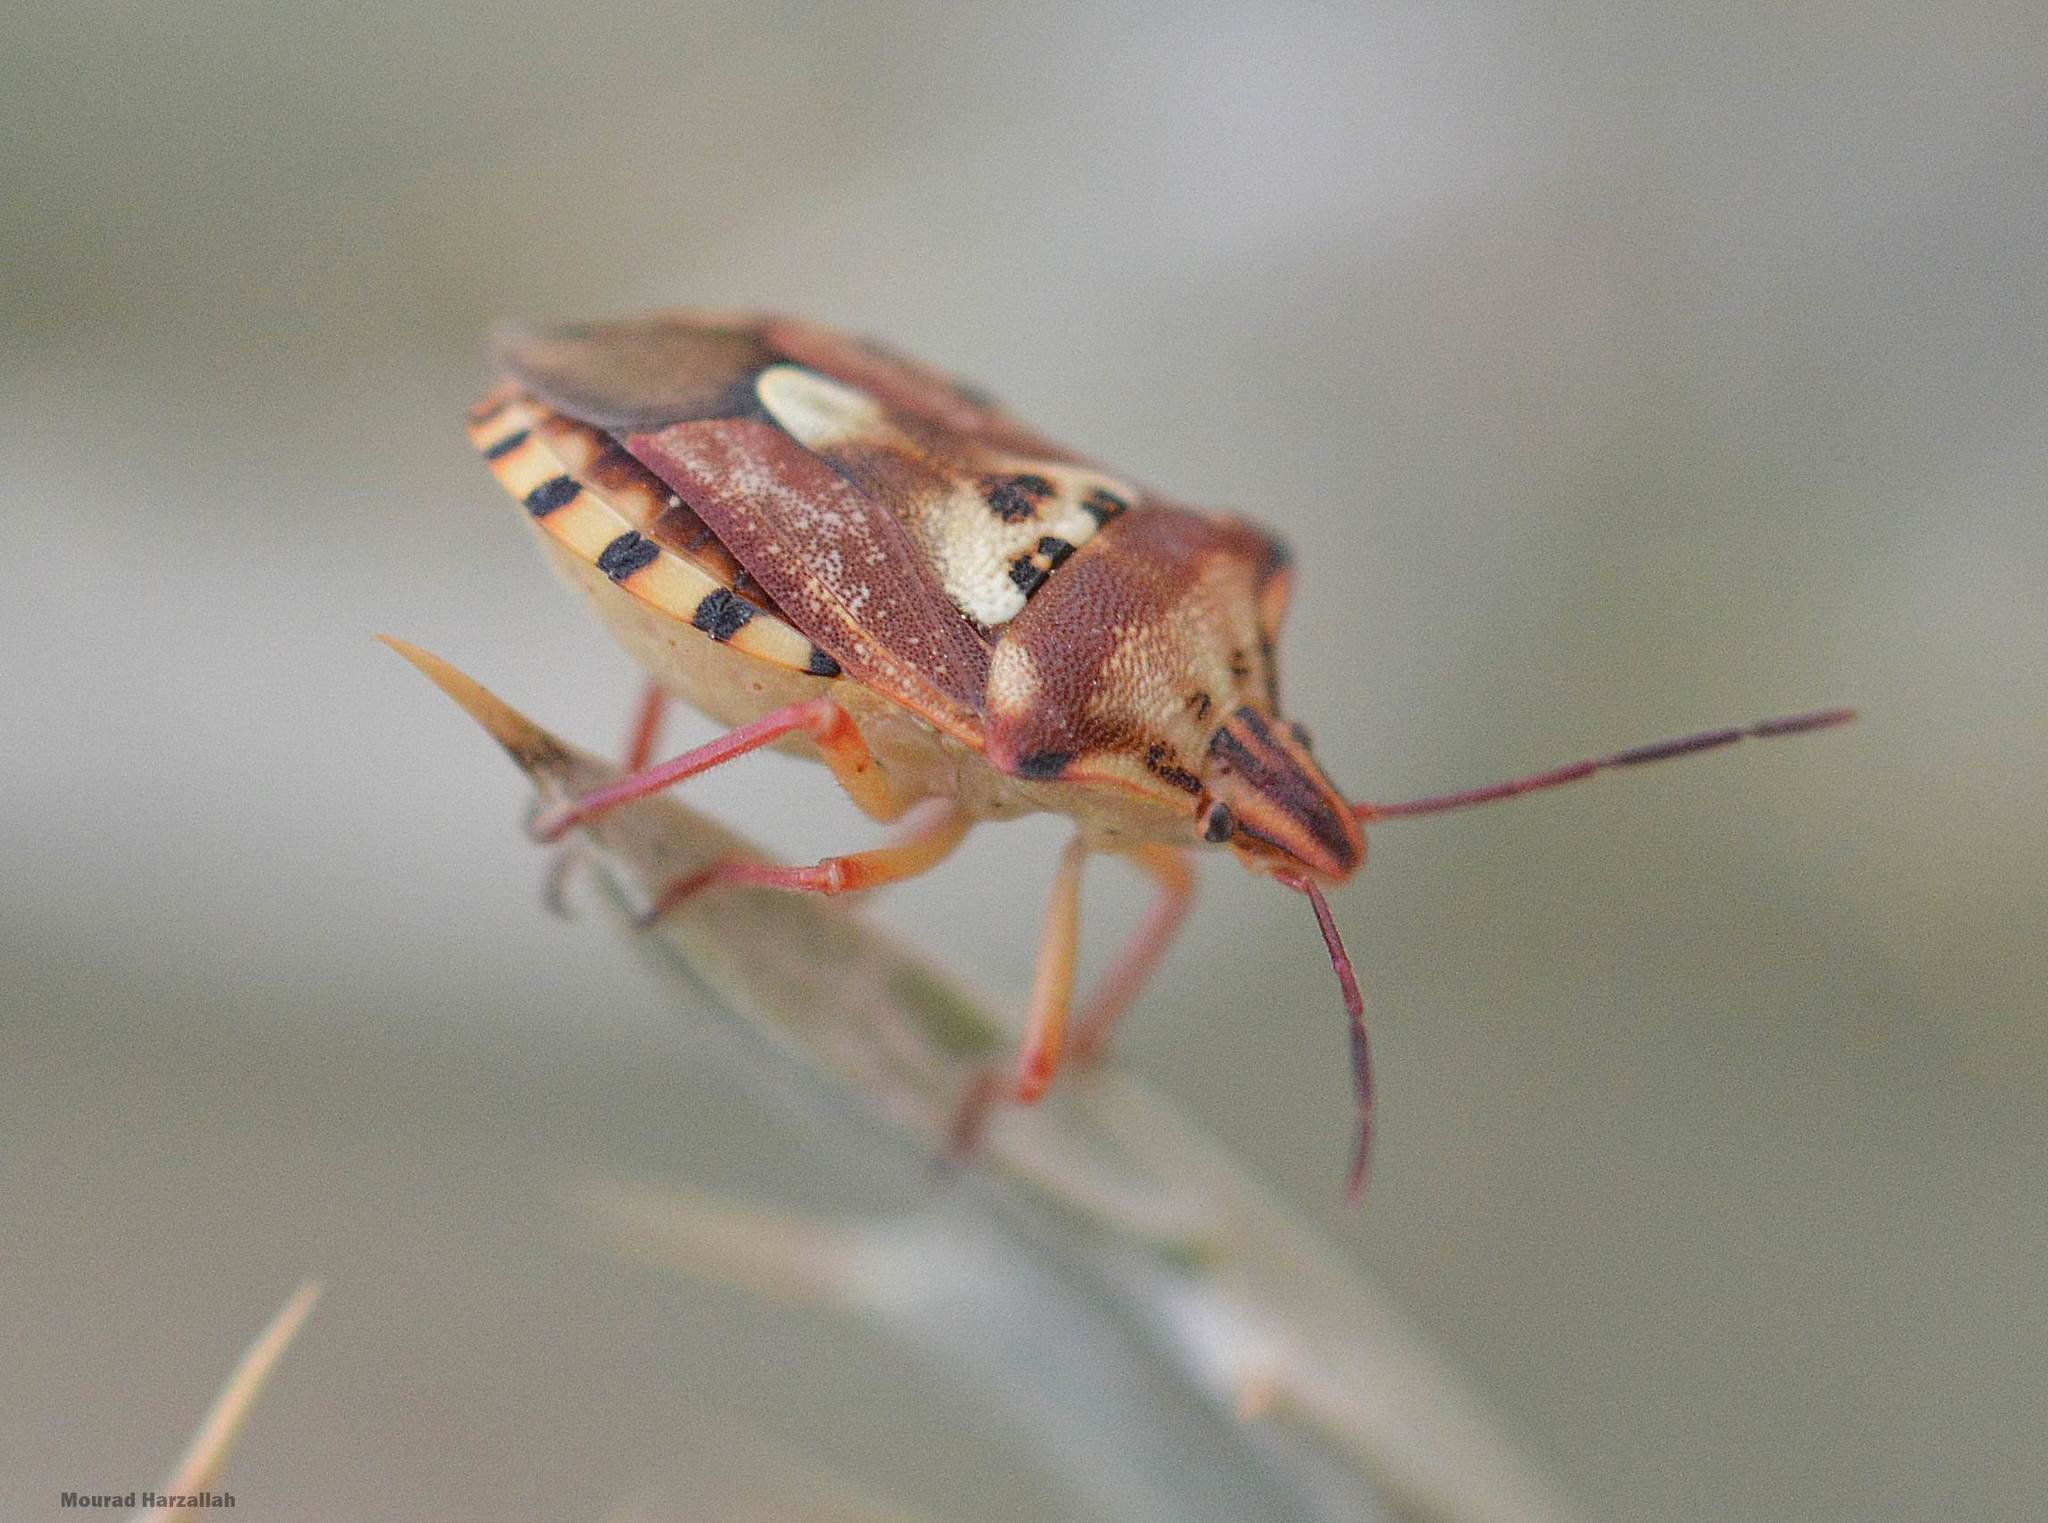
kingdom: Animalia
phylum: Arthropoda
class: Insecta
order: Hemiptera
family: Miridae
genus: Orthops
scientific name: Orthops kalmii
